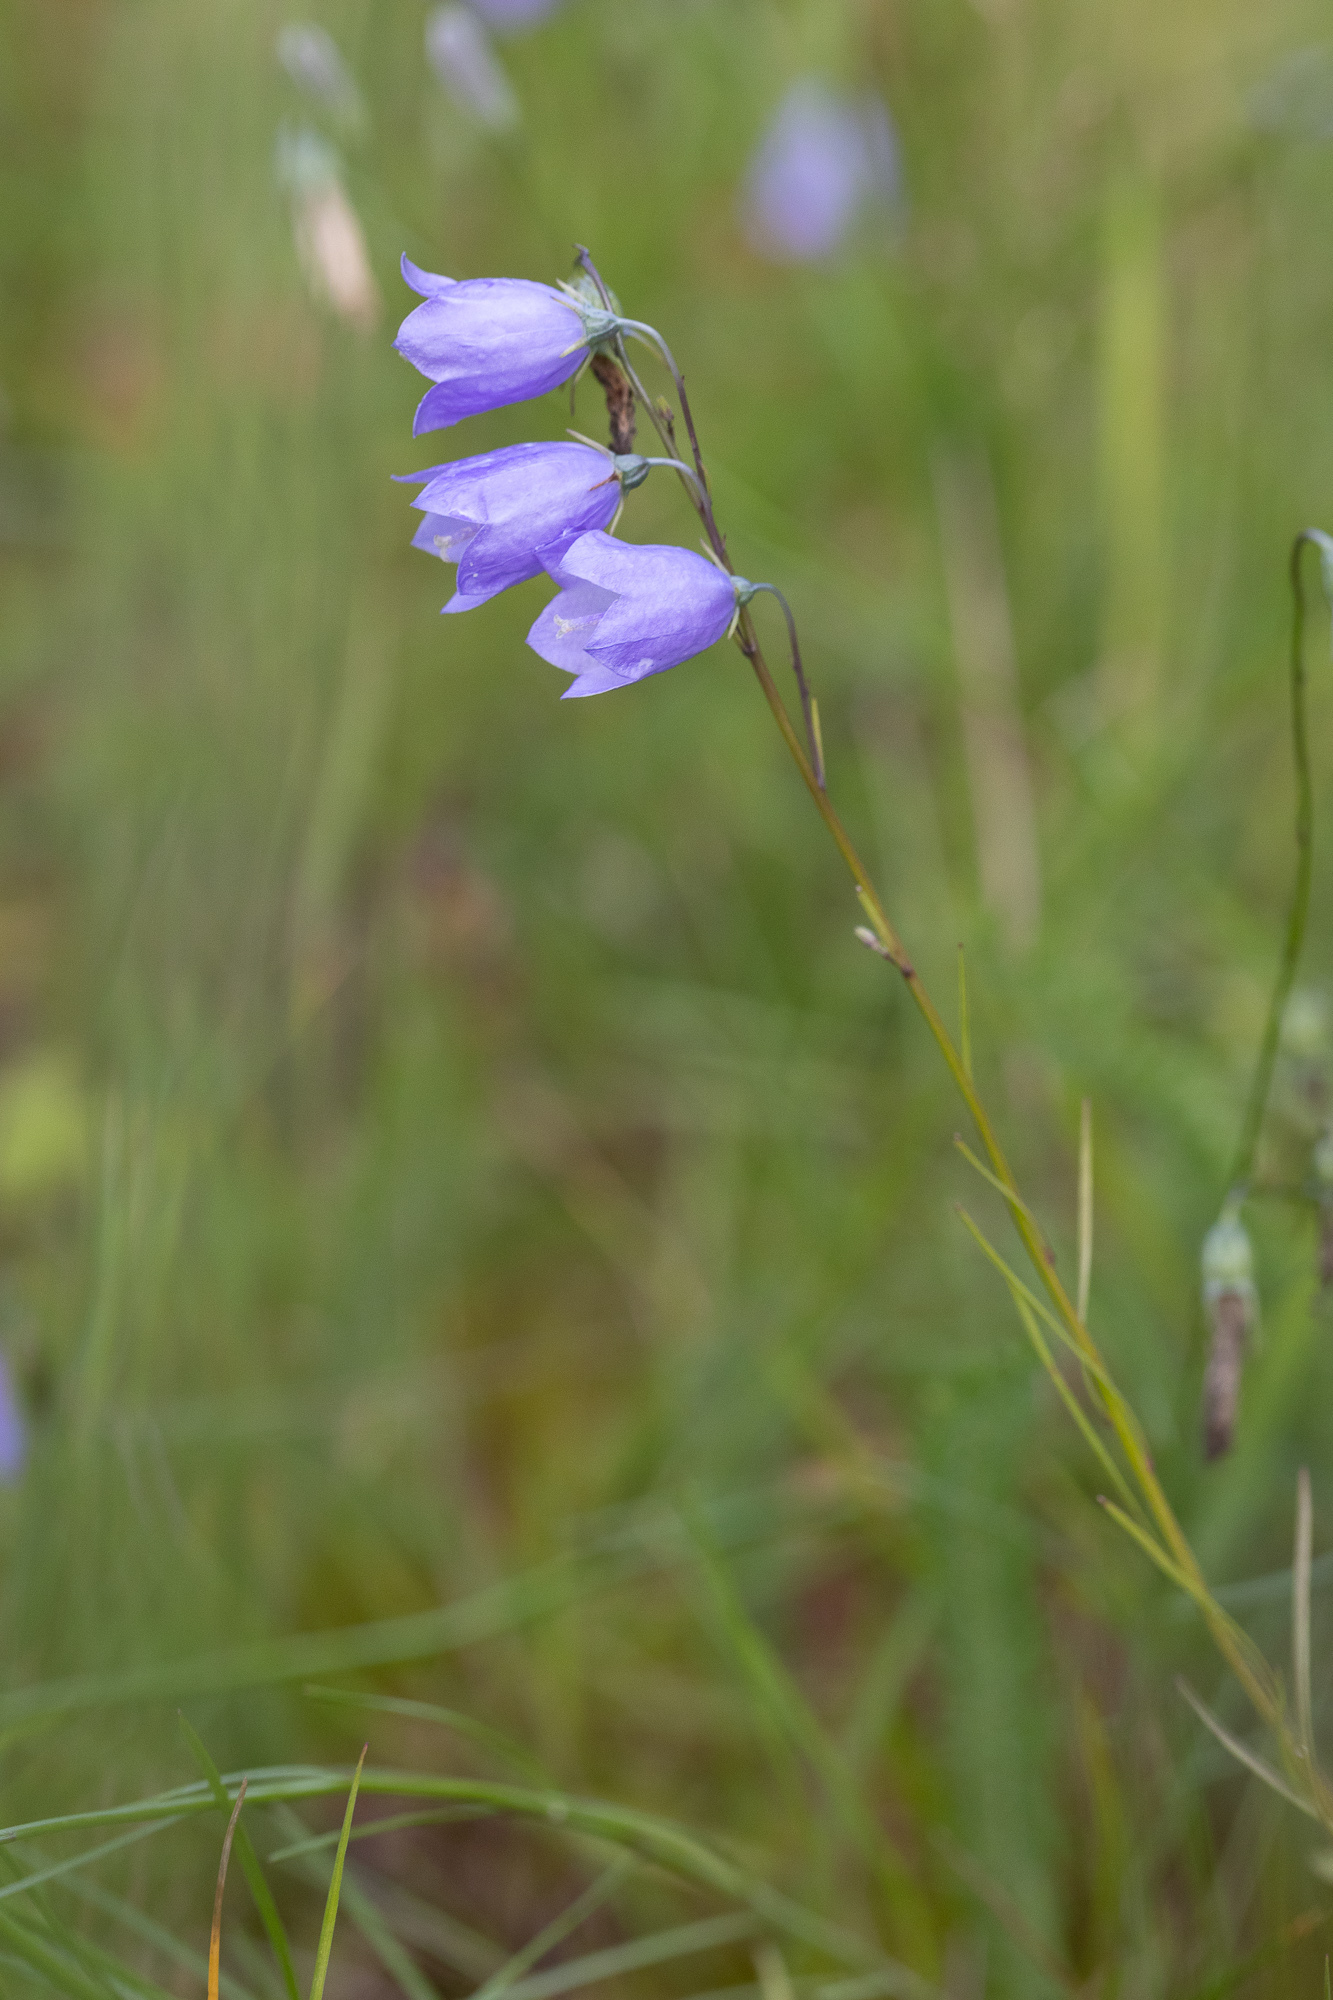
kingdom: Plantae
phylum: Tracheophyta
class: Magnoliopsida
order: Asterales
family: Campanulaceae
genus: Campanula
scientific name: Campanula rotundifolia
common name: Harebell
